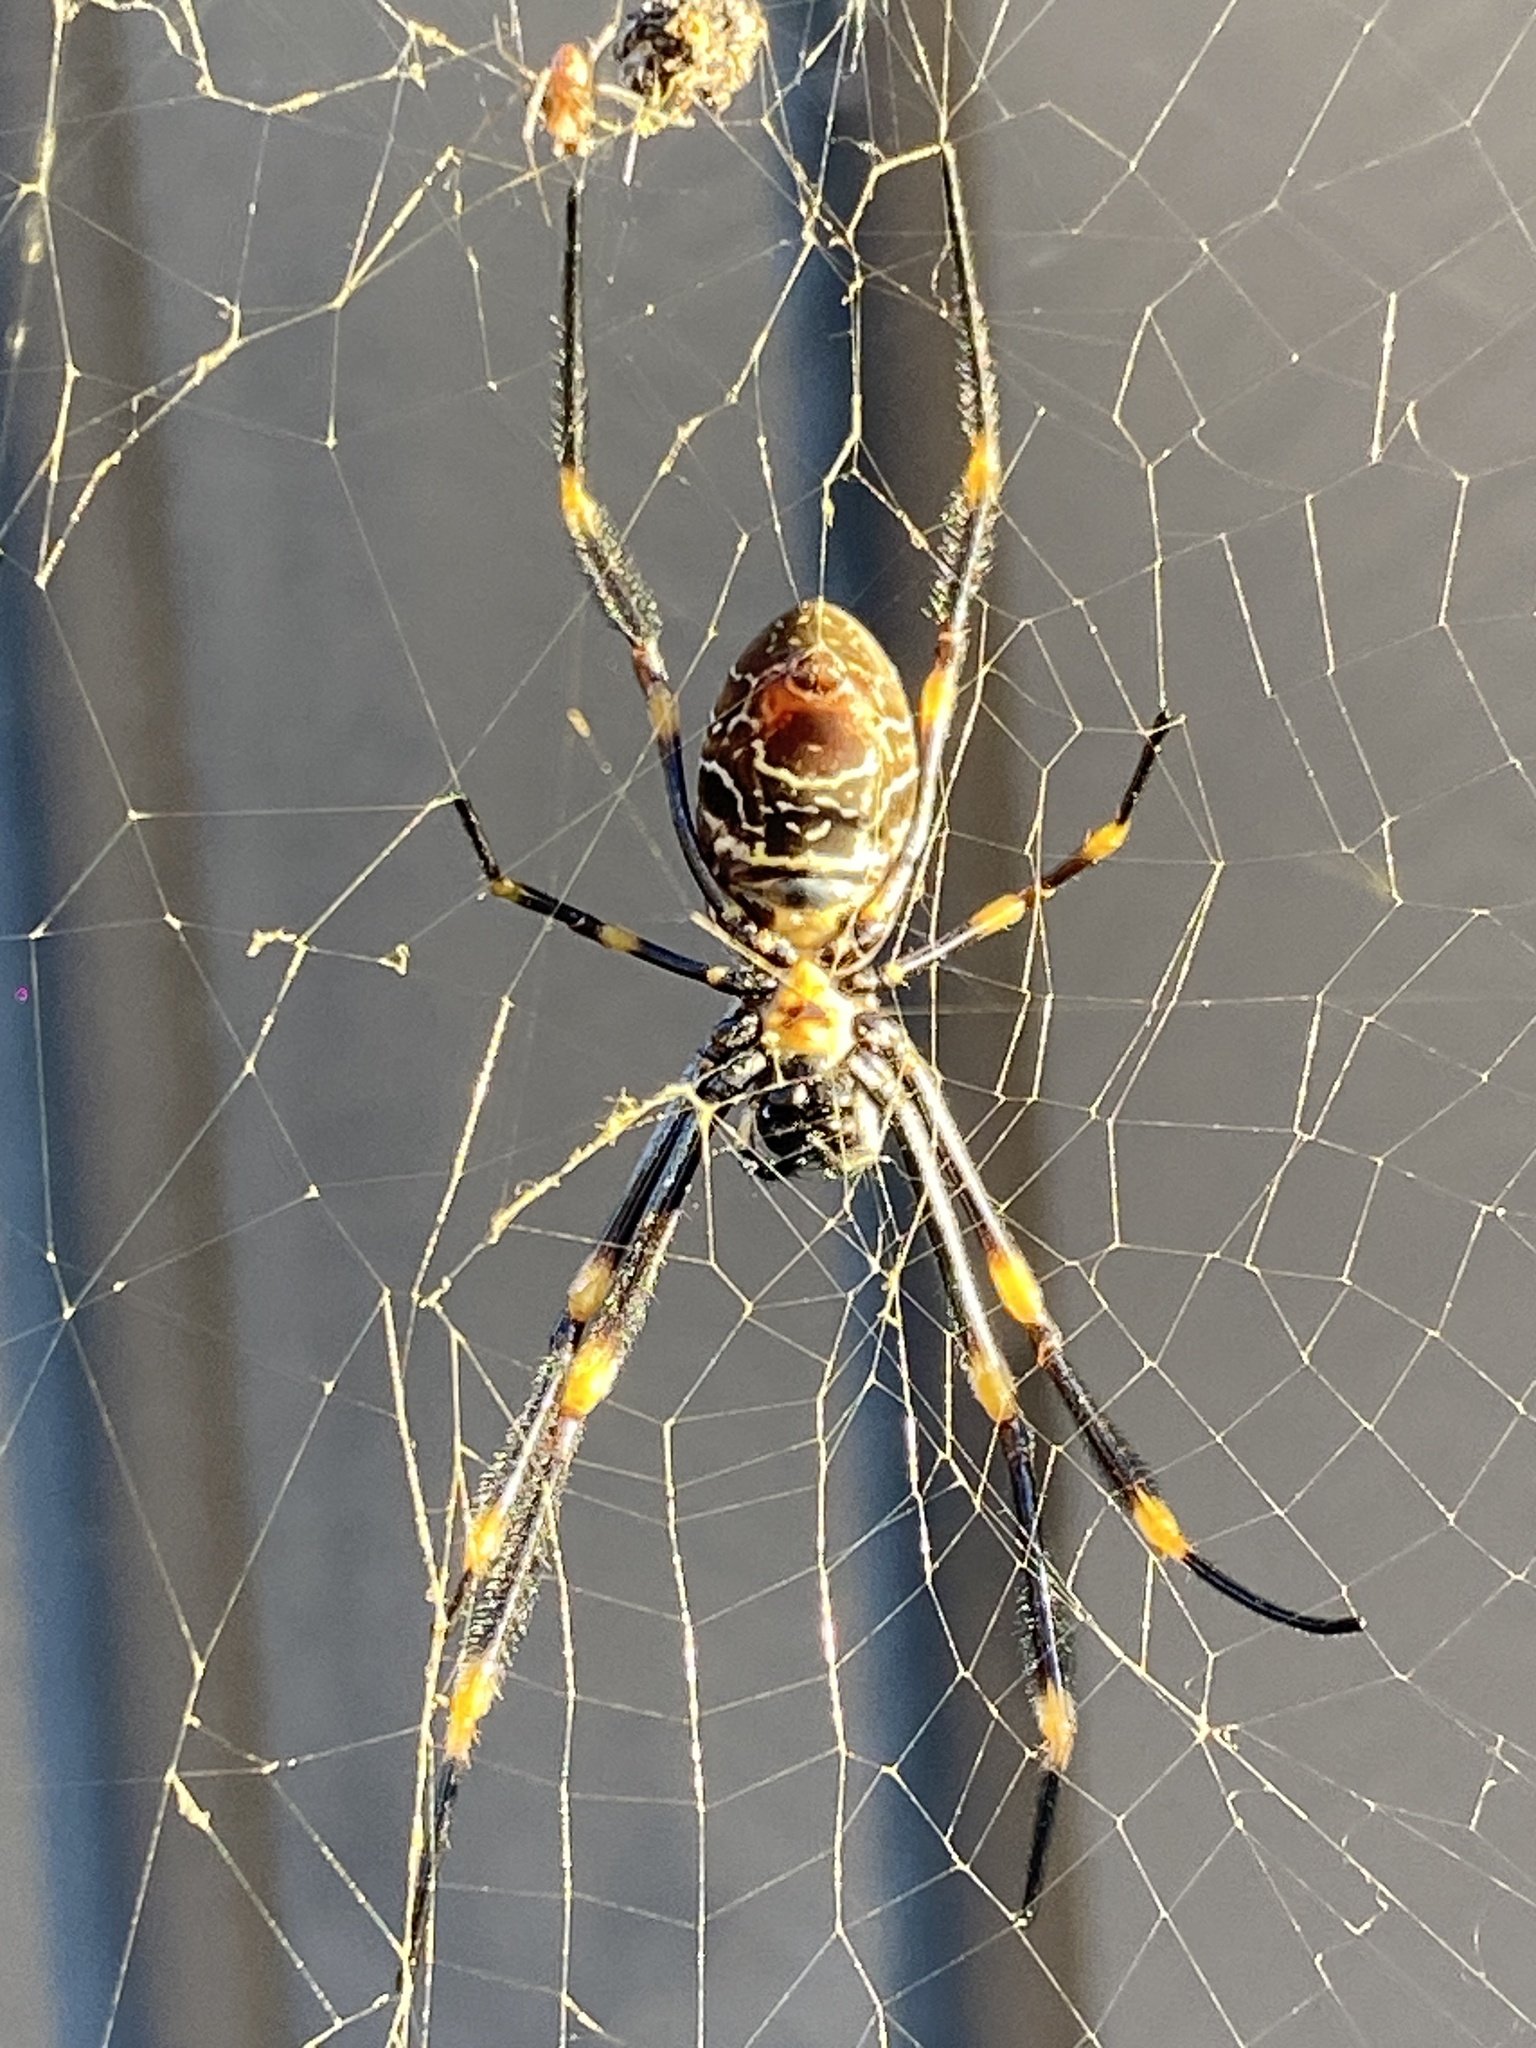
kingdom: Animalia
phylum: Arthropoda
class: Arachnida
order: Araneae
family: Araneidae
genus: Trichonephila
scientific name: Trichonephila plumipes
